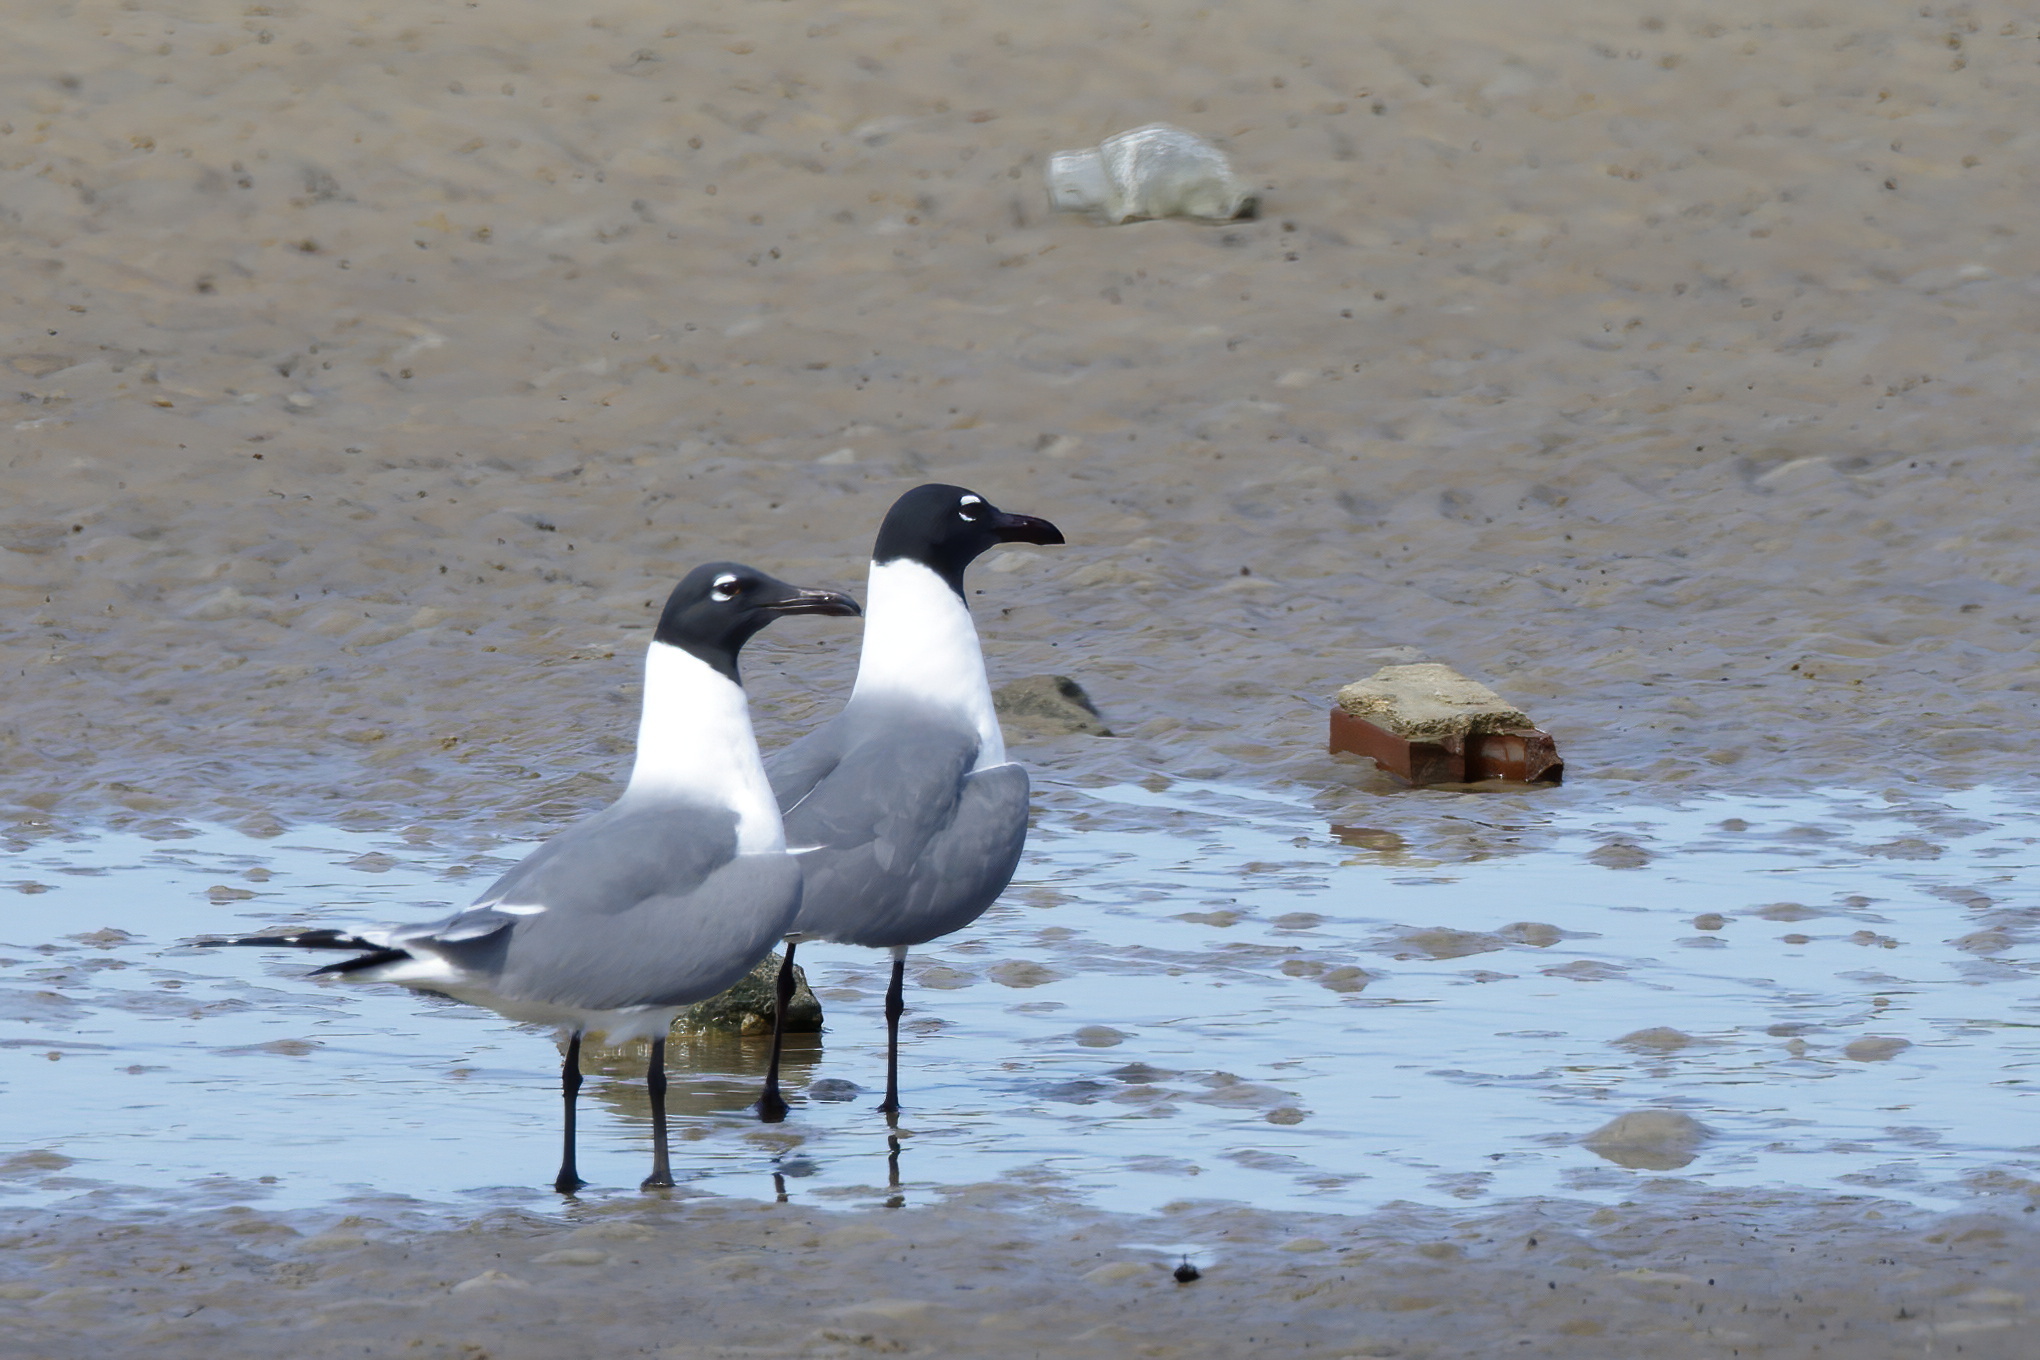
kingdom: Animalia
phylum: Chordata
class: Aves
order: Charadriiformes
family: Laridae
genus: Leucophaeus
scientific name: Leucophaeus atricilla
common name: Laughing gull
